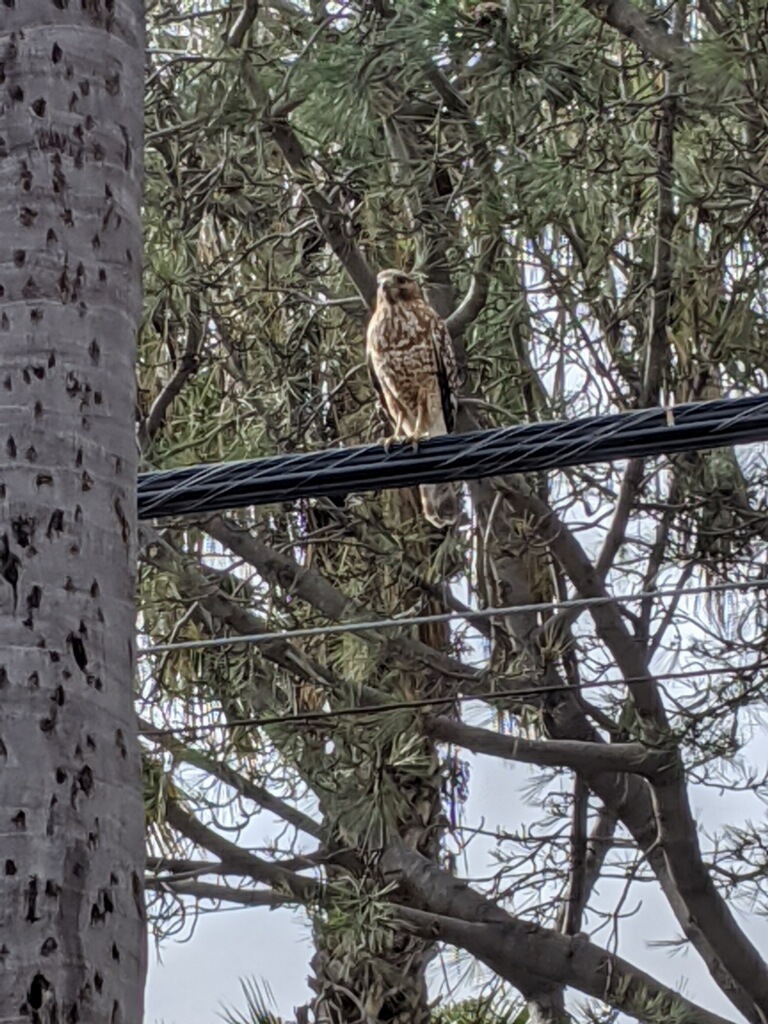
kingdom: Animalia
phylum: Chordata
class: Aves
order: Accipitriformes
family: Accipitridae
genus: Buteo
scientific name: Buteo lineatus
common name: Red-shouldered hawk
